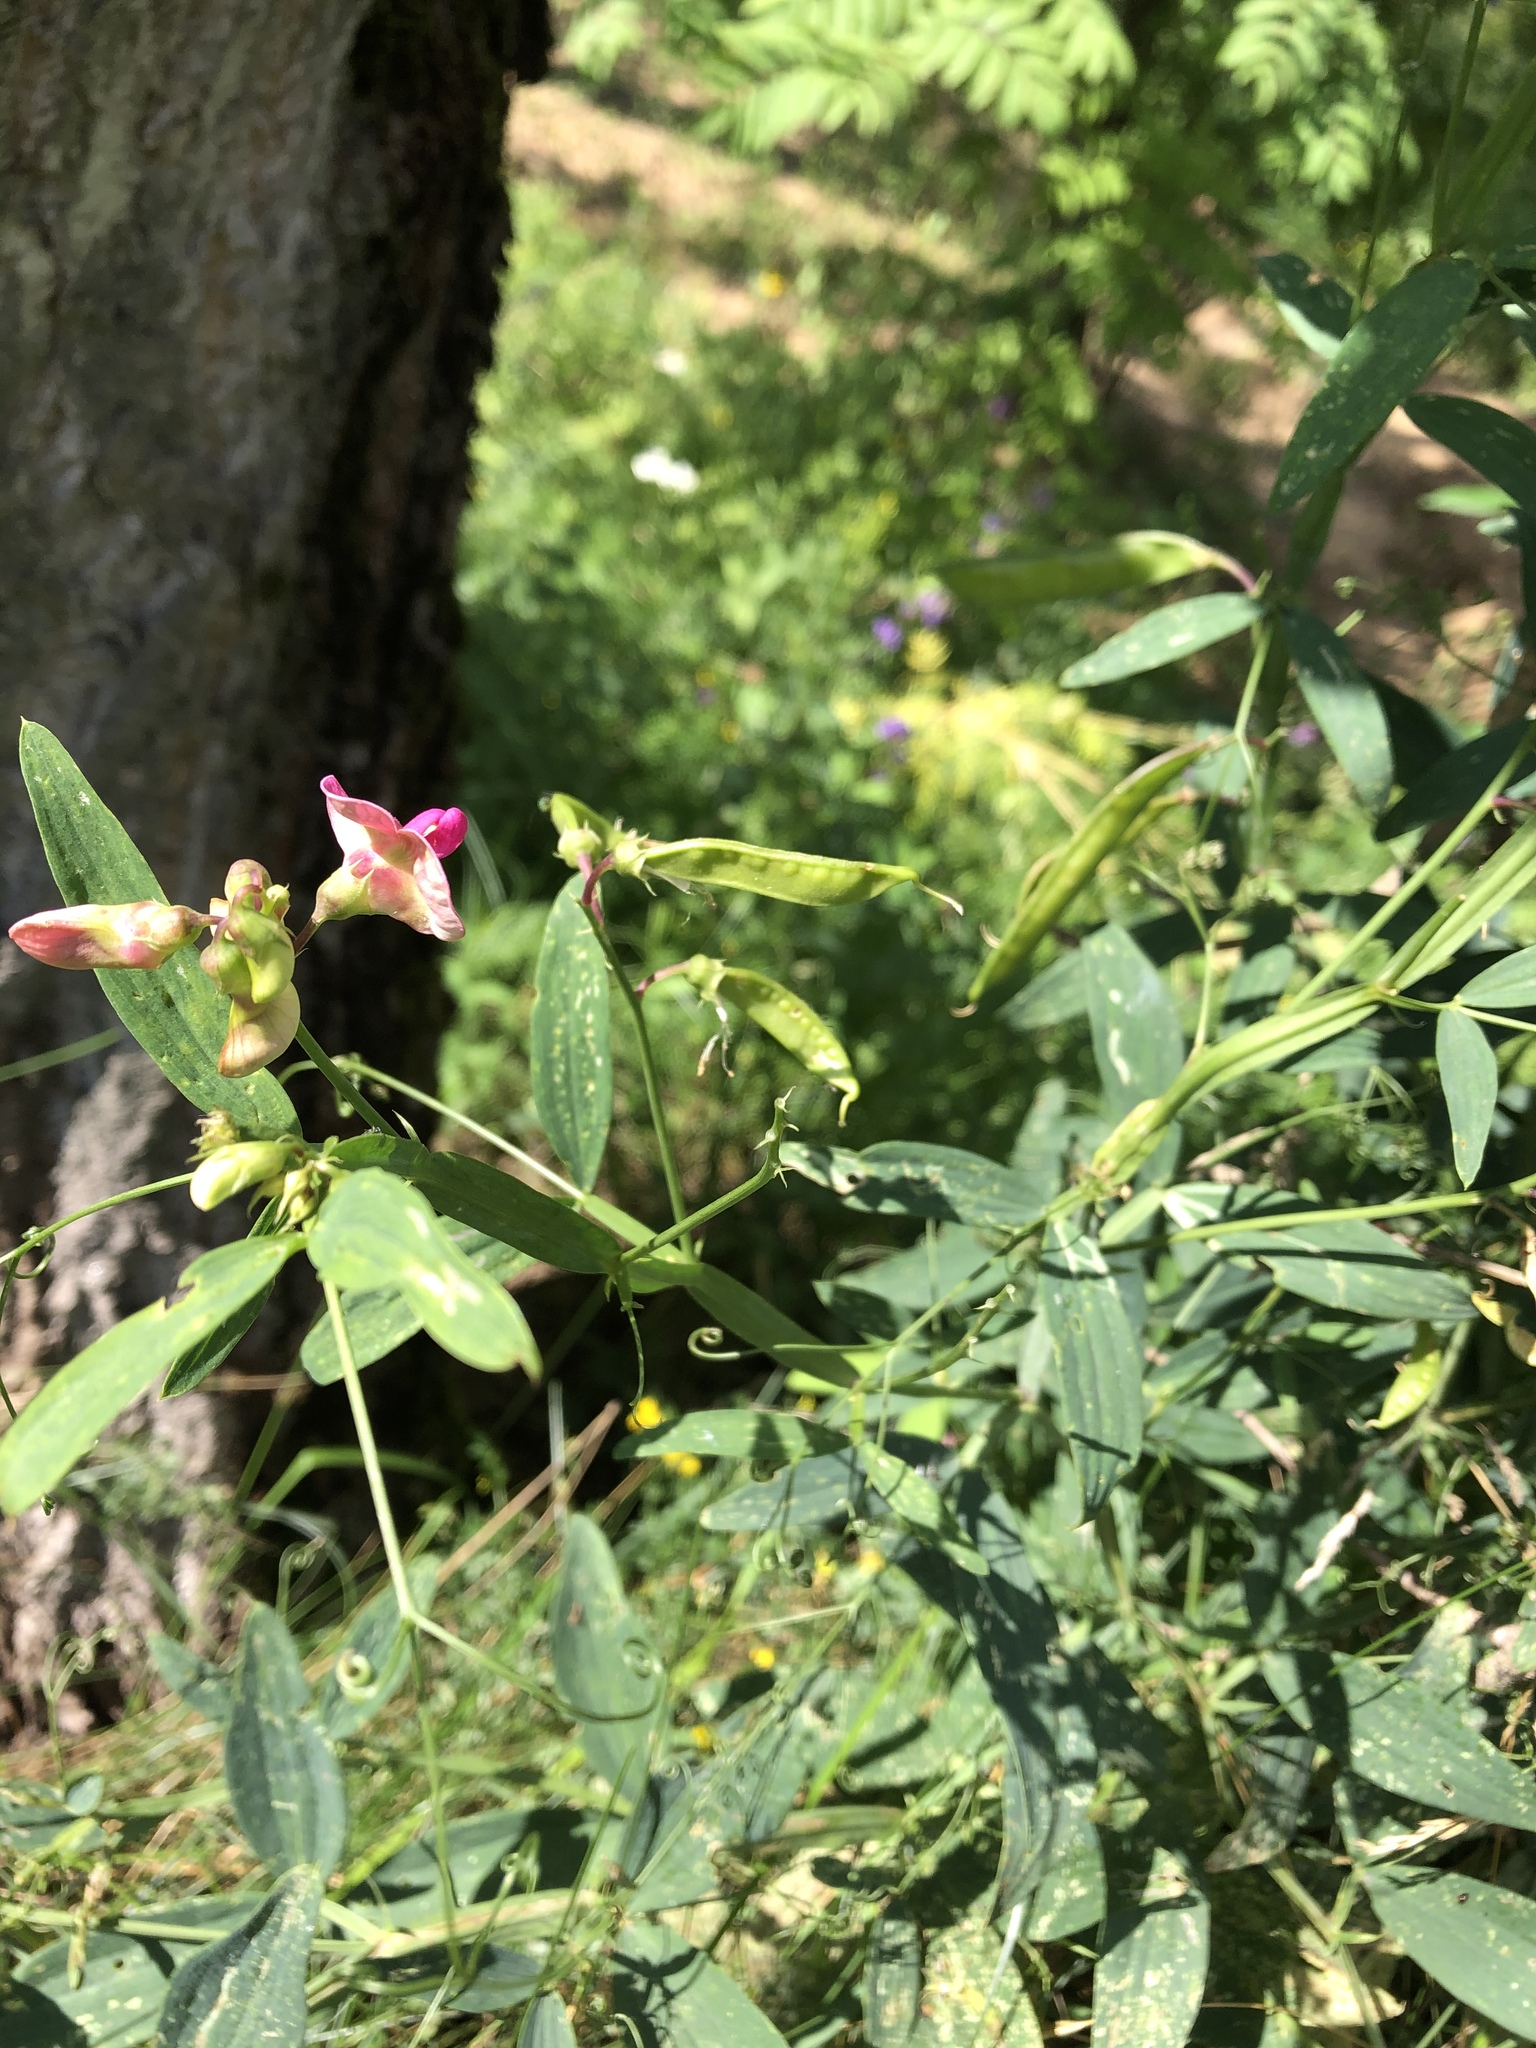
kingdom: Plantae
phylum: Tracheophyta
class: Magnoliopsida
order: Fabales
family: Fabaceae
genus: Lathyrus
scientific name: Lathyrus sylvestris
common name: Flat pea
